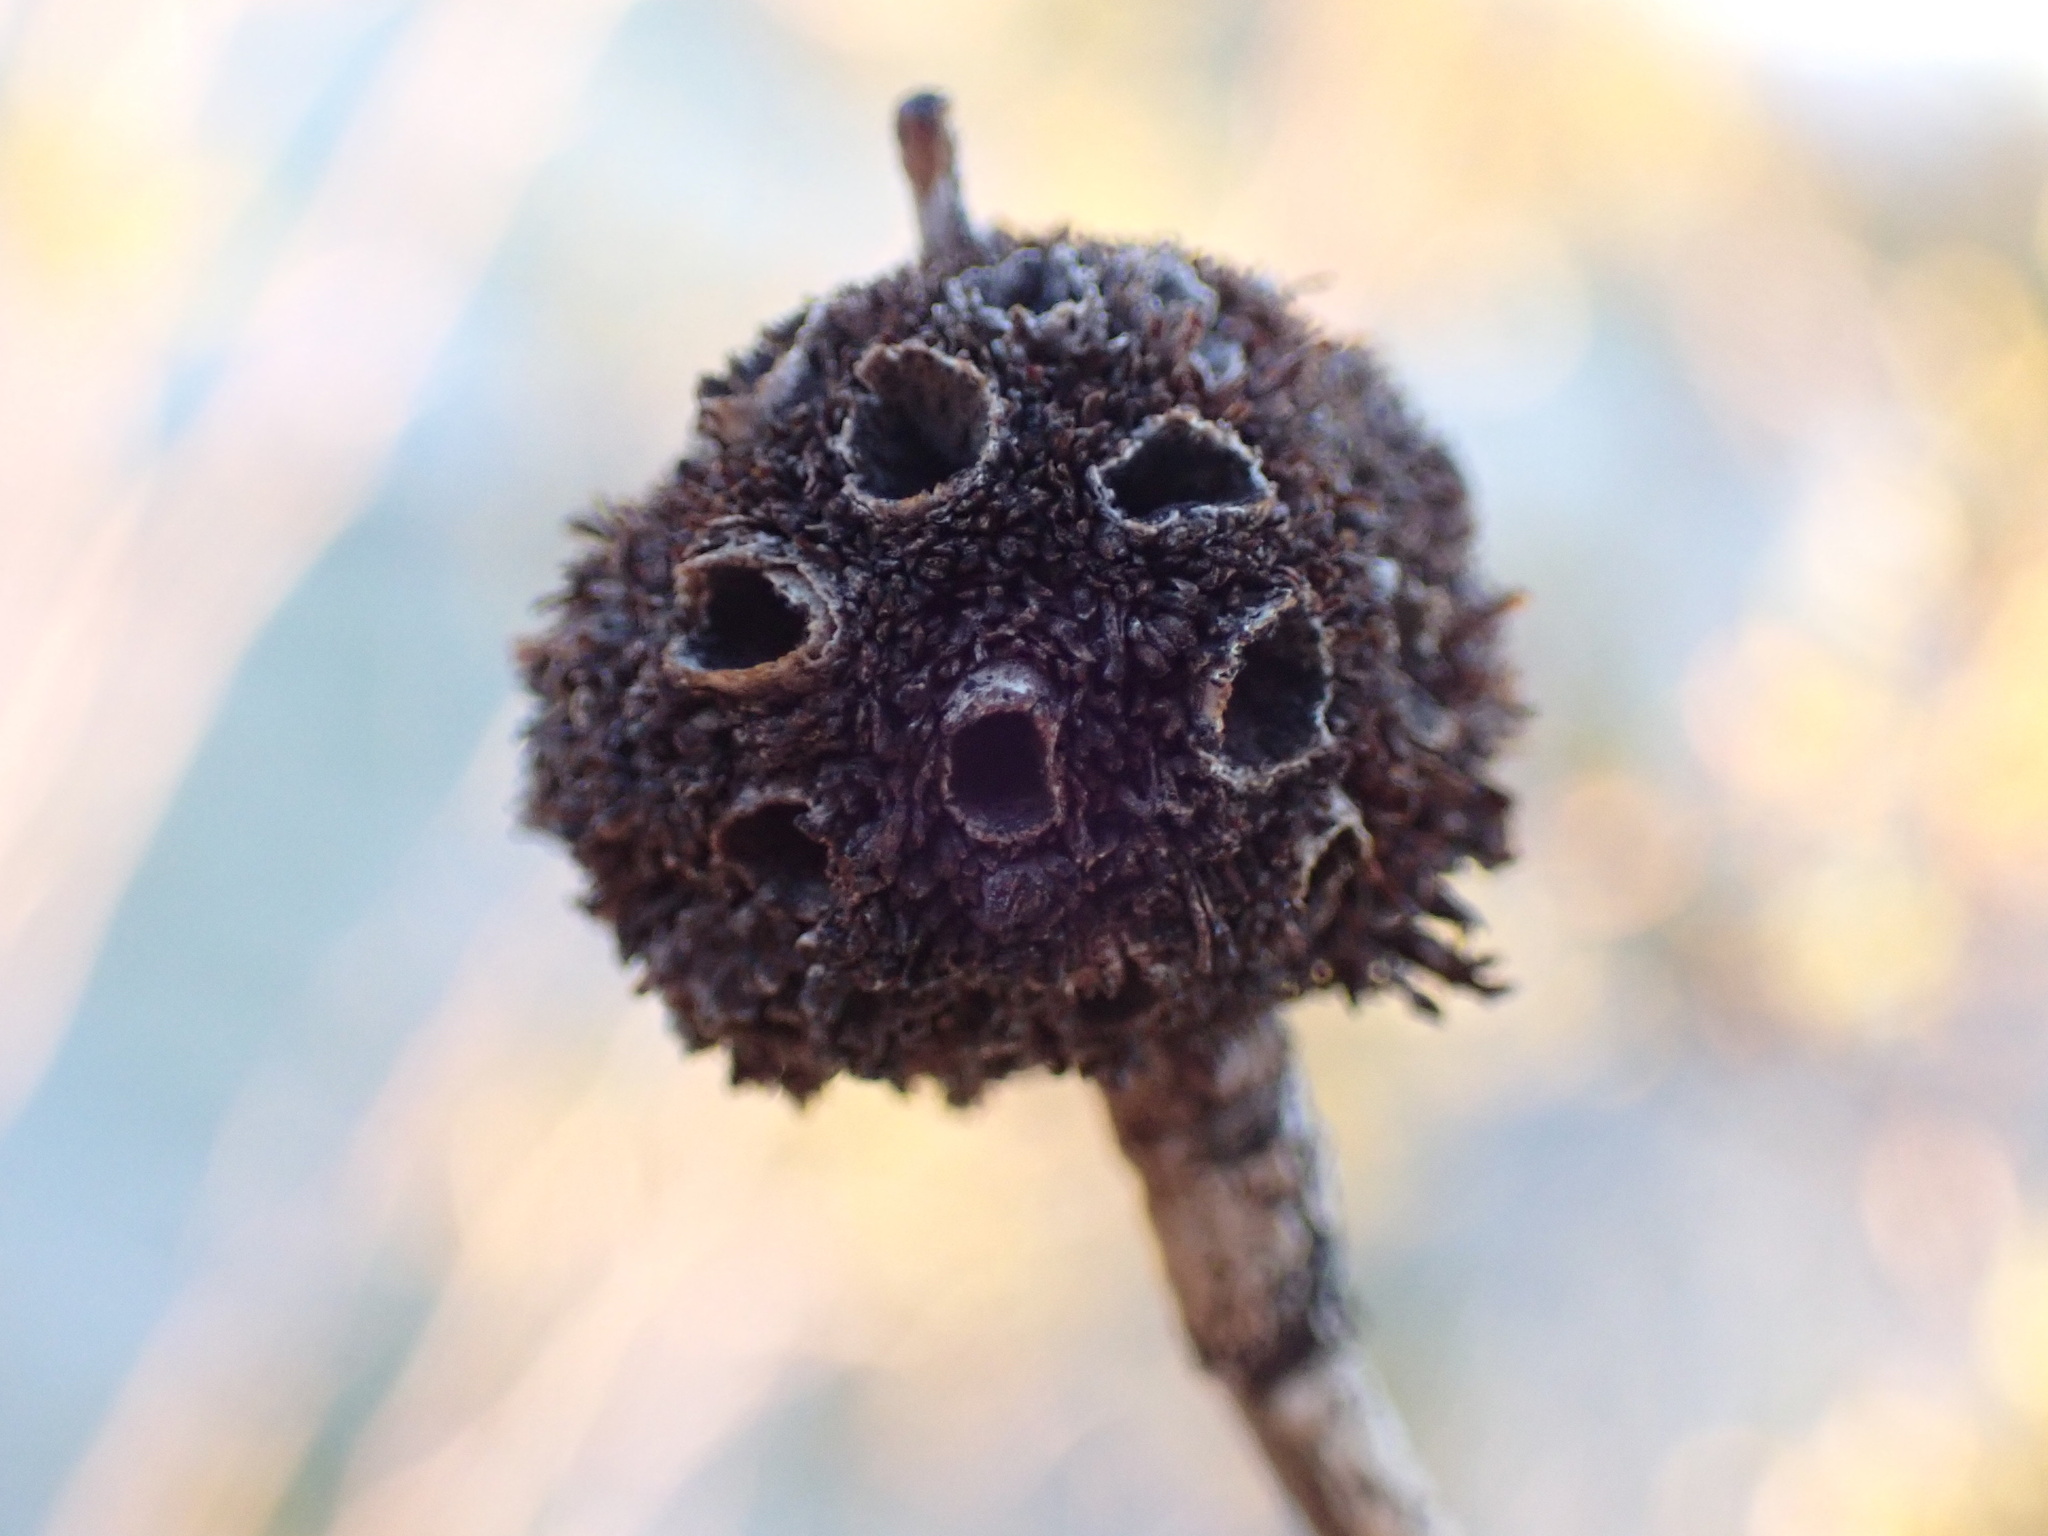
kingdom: Animalia
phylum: Arthropoda
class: Insecta
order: Diptera
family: Cecidomyiidae
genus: Asphondylia
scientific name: Asphondylia auripila
